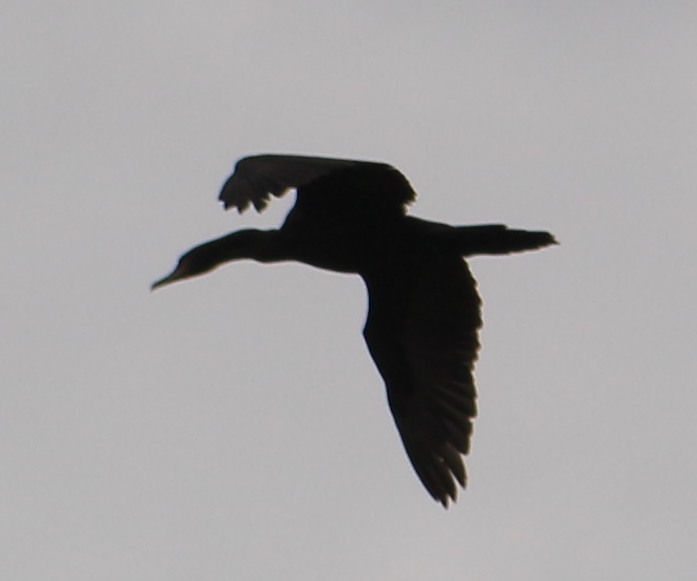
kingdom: Animalia
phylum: Chordata
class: Aves
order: Suliformes
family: Phalacrocoracidae
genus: Phalacrocorax
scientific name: Phalacrocorax brasilianus
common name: Neotropic cormorant
